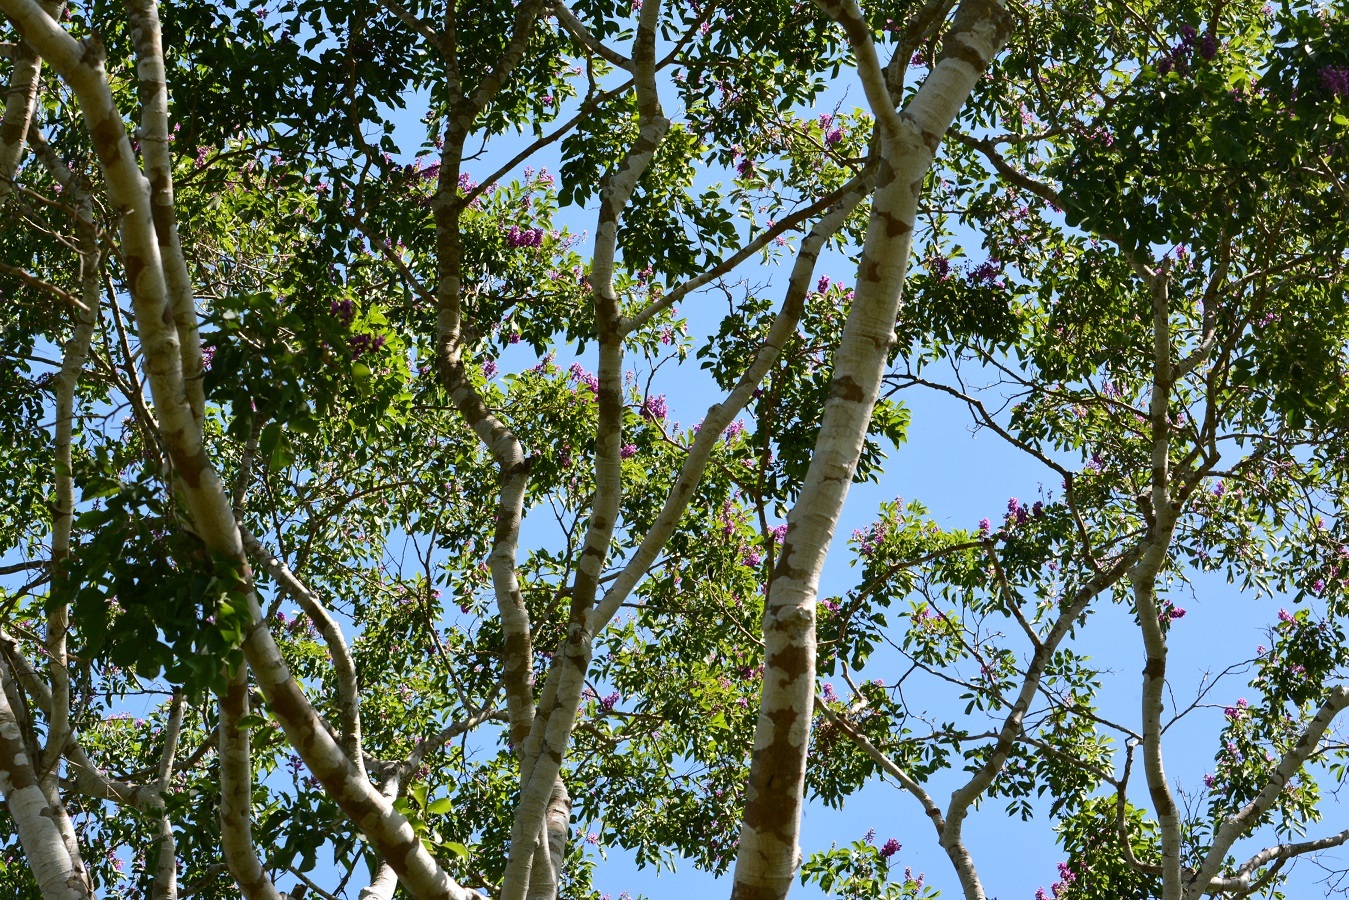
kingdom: Plantae
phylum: Tracheophyta
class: Magnoliopsida
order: Fabales
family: Fabaceae
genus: Lonchocarpus
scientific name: Lonchocarpus sumiderensis
